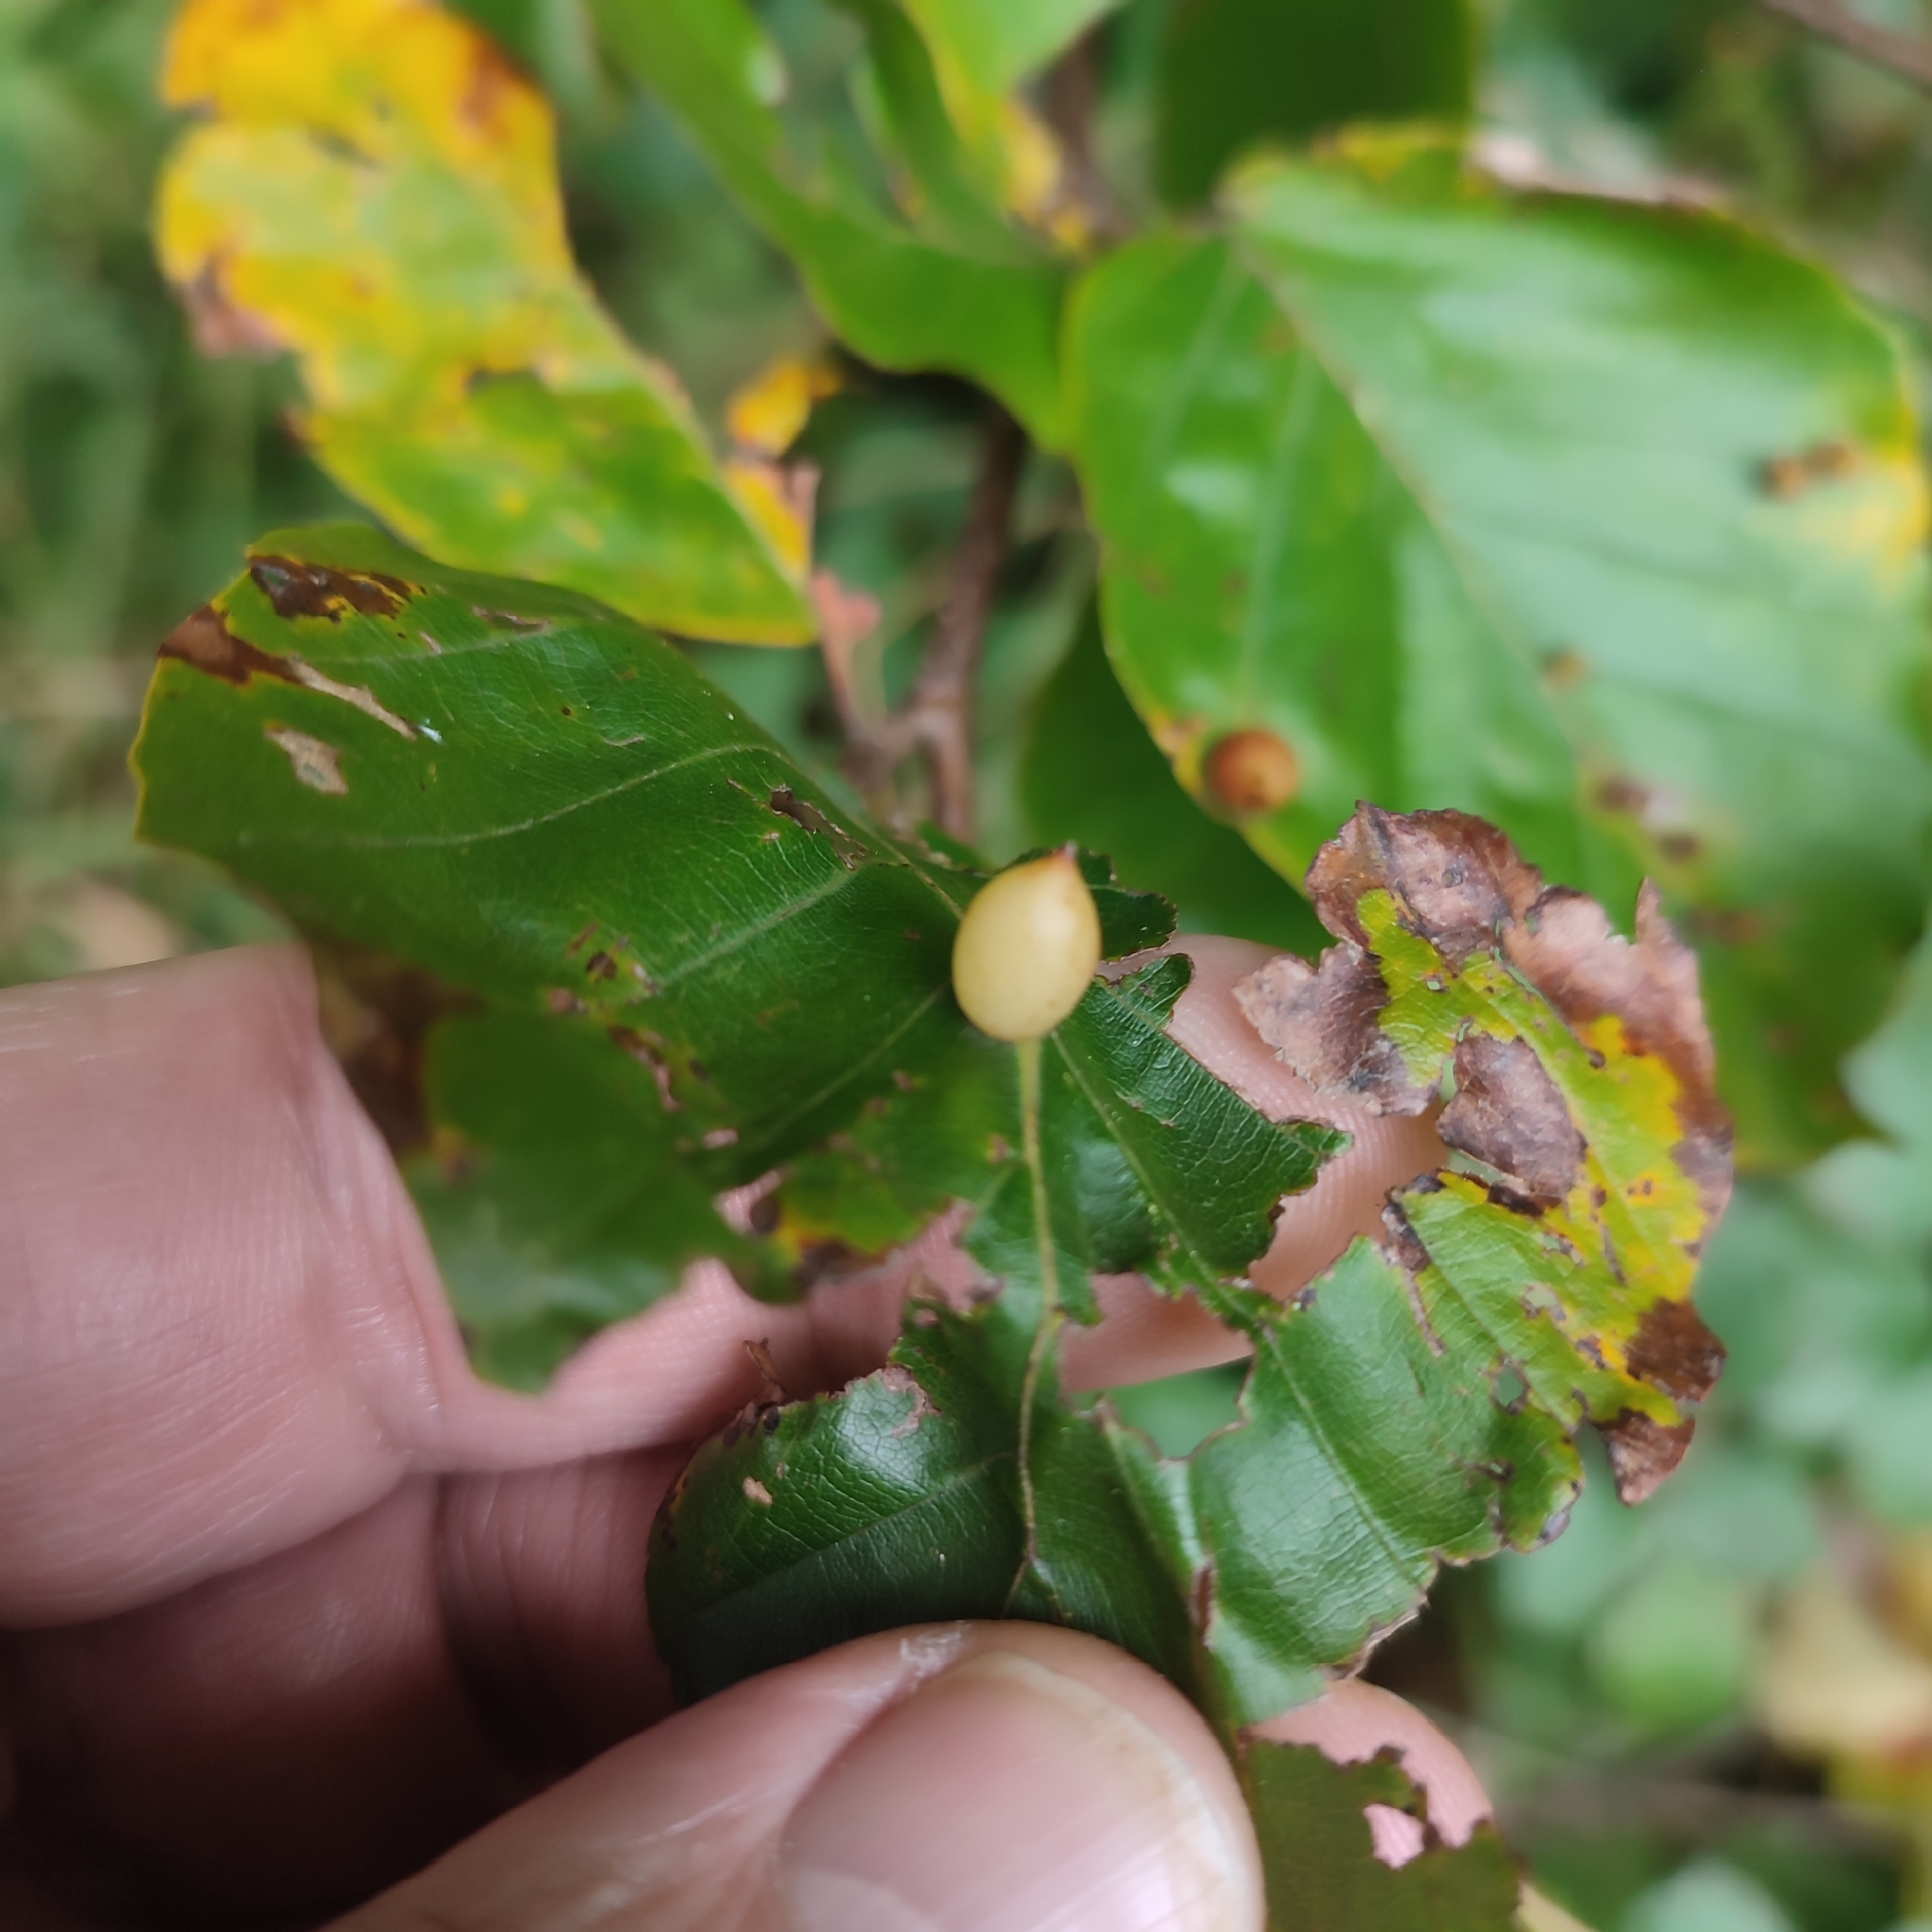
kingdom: Animalia
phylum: Arthropoda
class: Insecta
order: Diptera
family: Cecidomyiidae
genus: Mikiola
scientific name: Mikiola fagi
